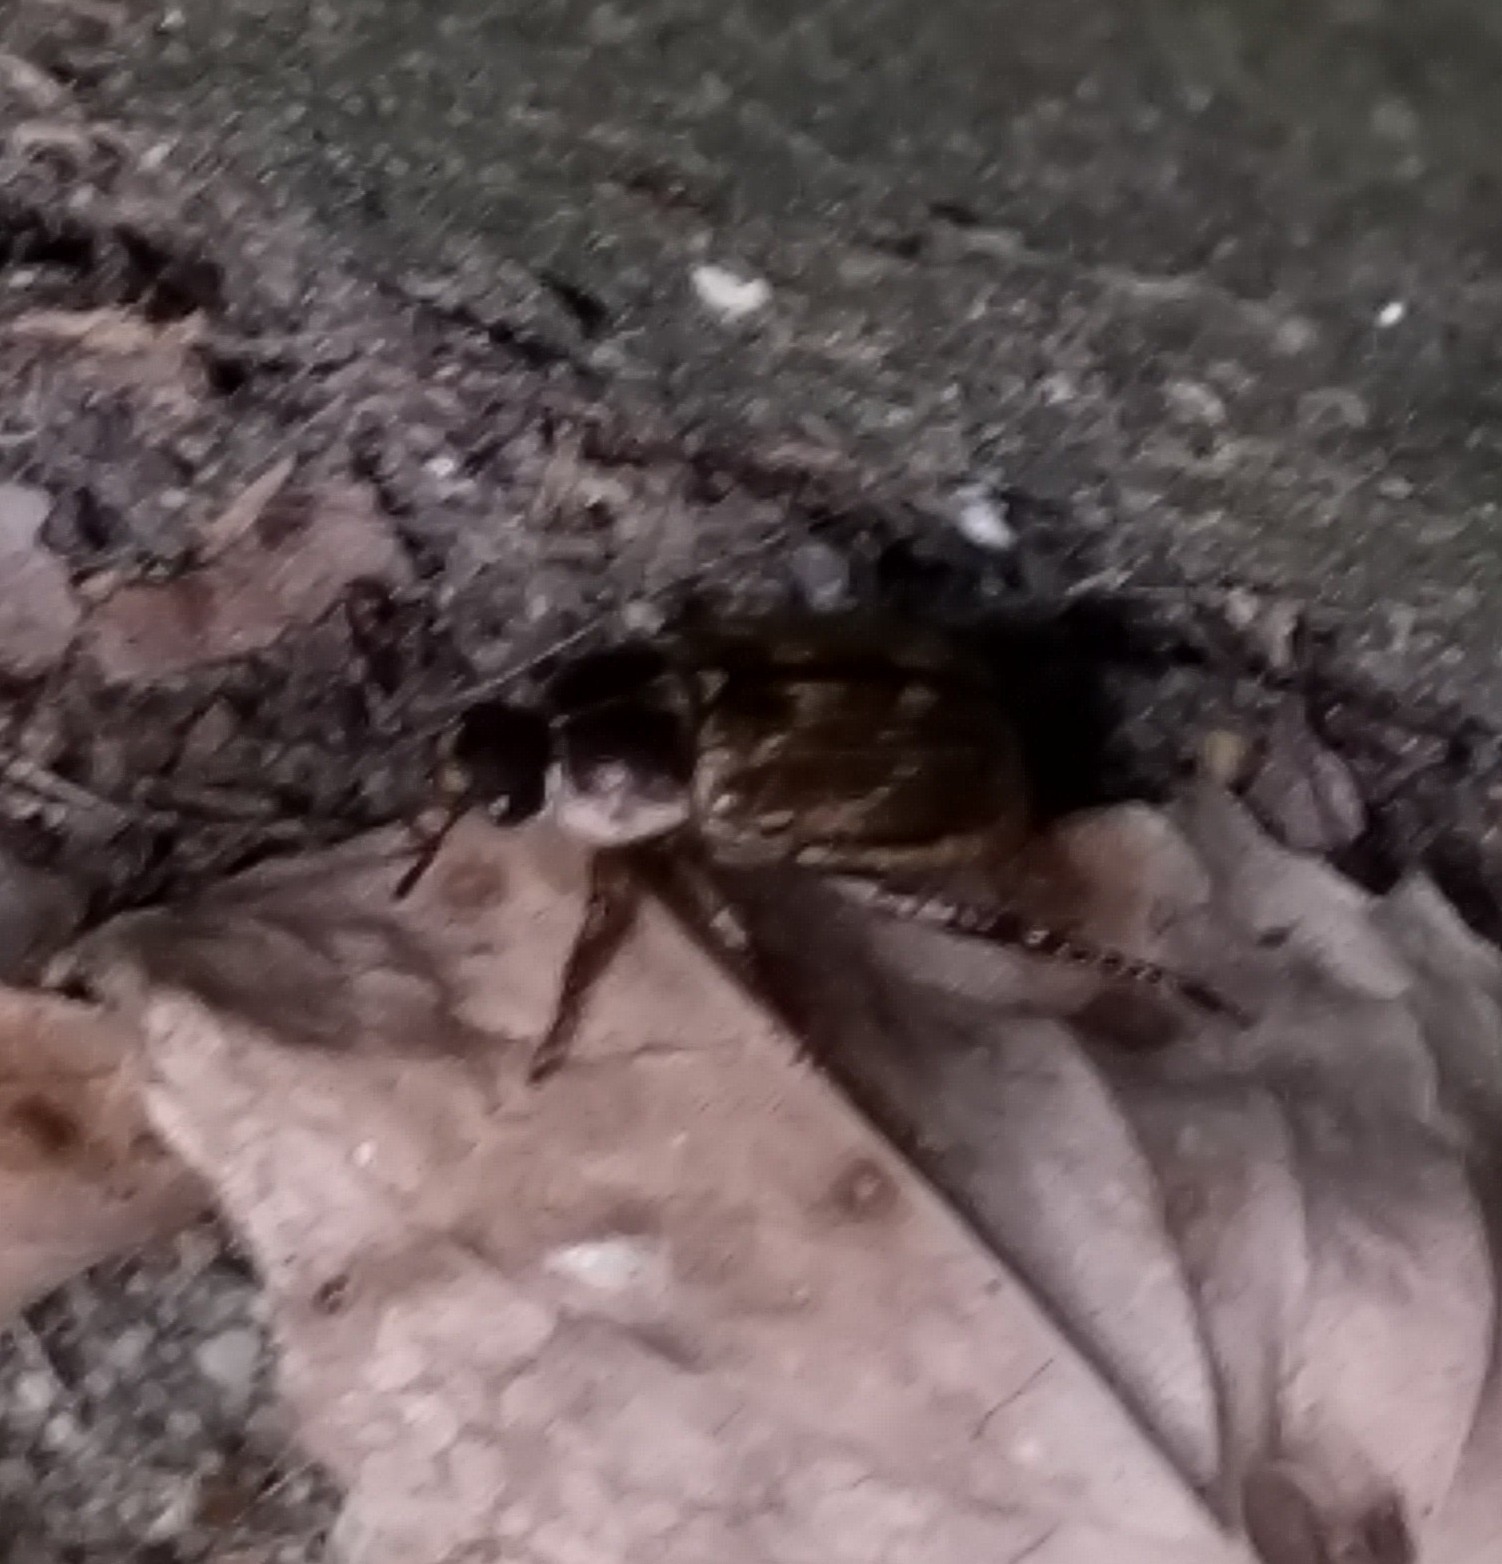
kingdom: Animalia
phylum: Arthropoda
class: Insecta
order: Coleoptera
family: Scarabaeidae
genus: Exomala
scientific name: Exomala orientalis
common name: Oriental beetle
